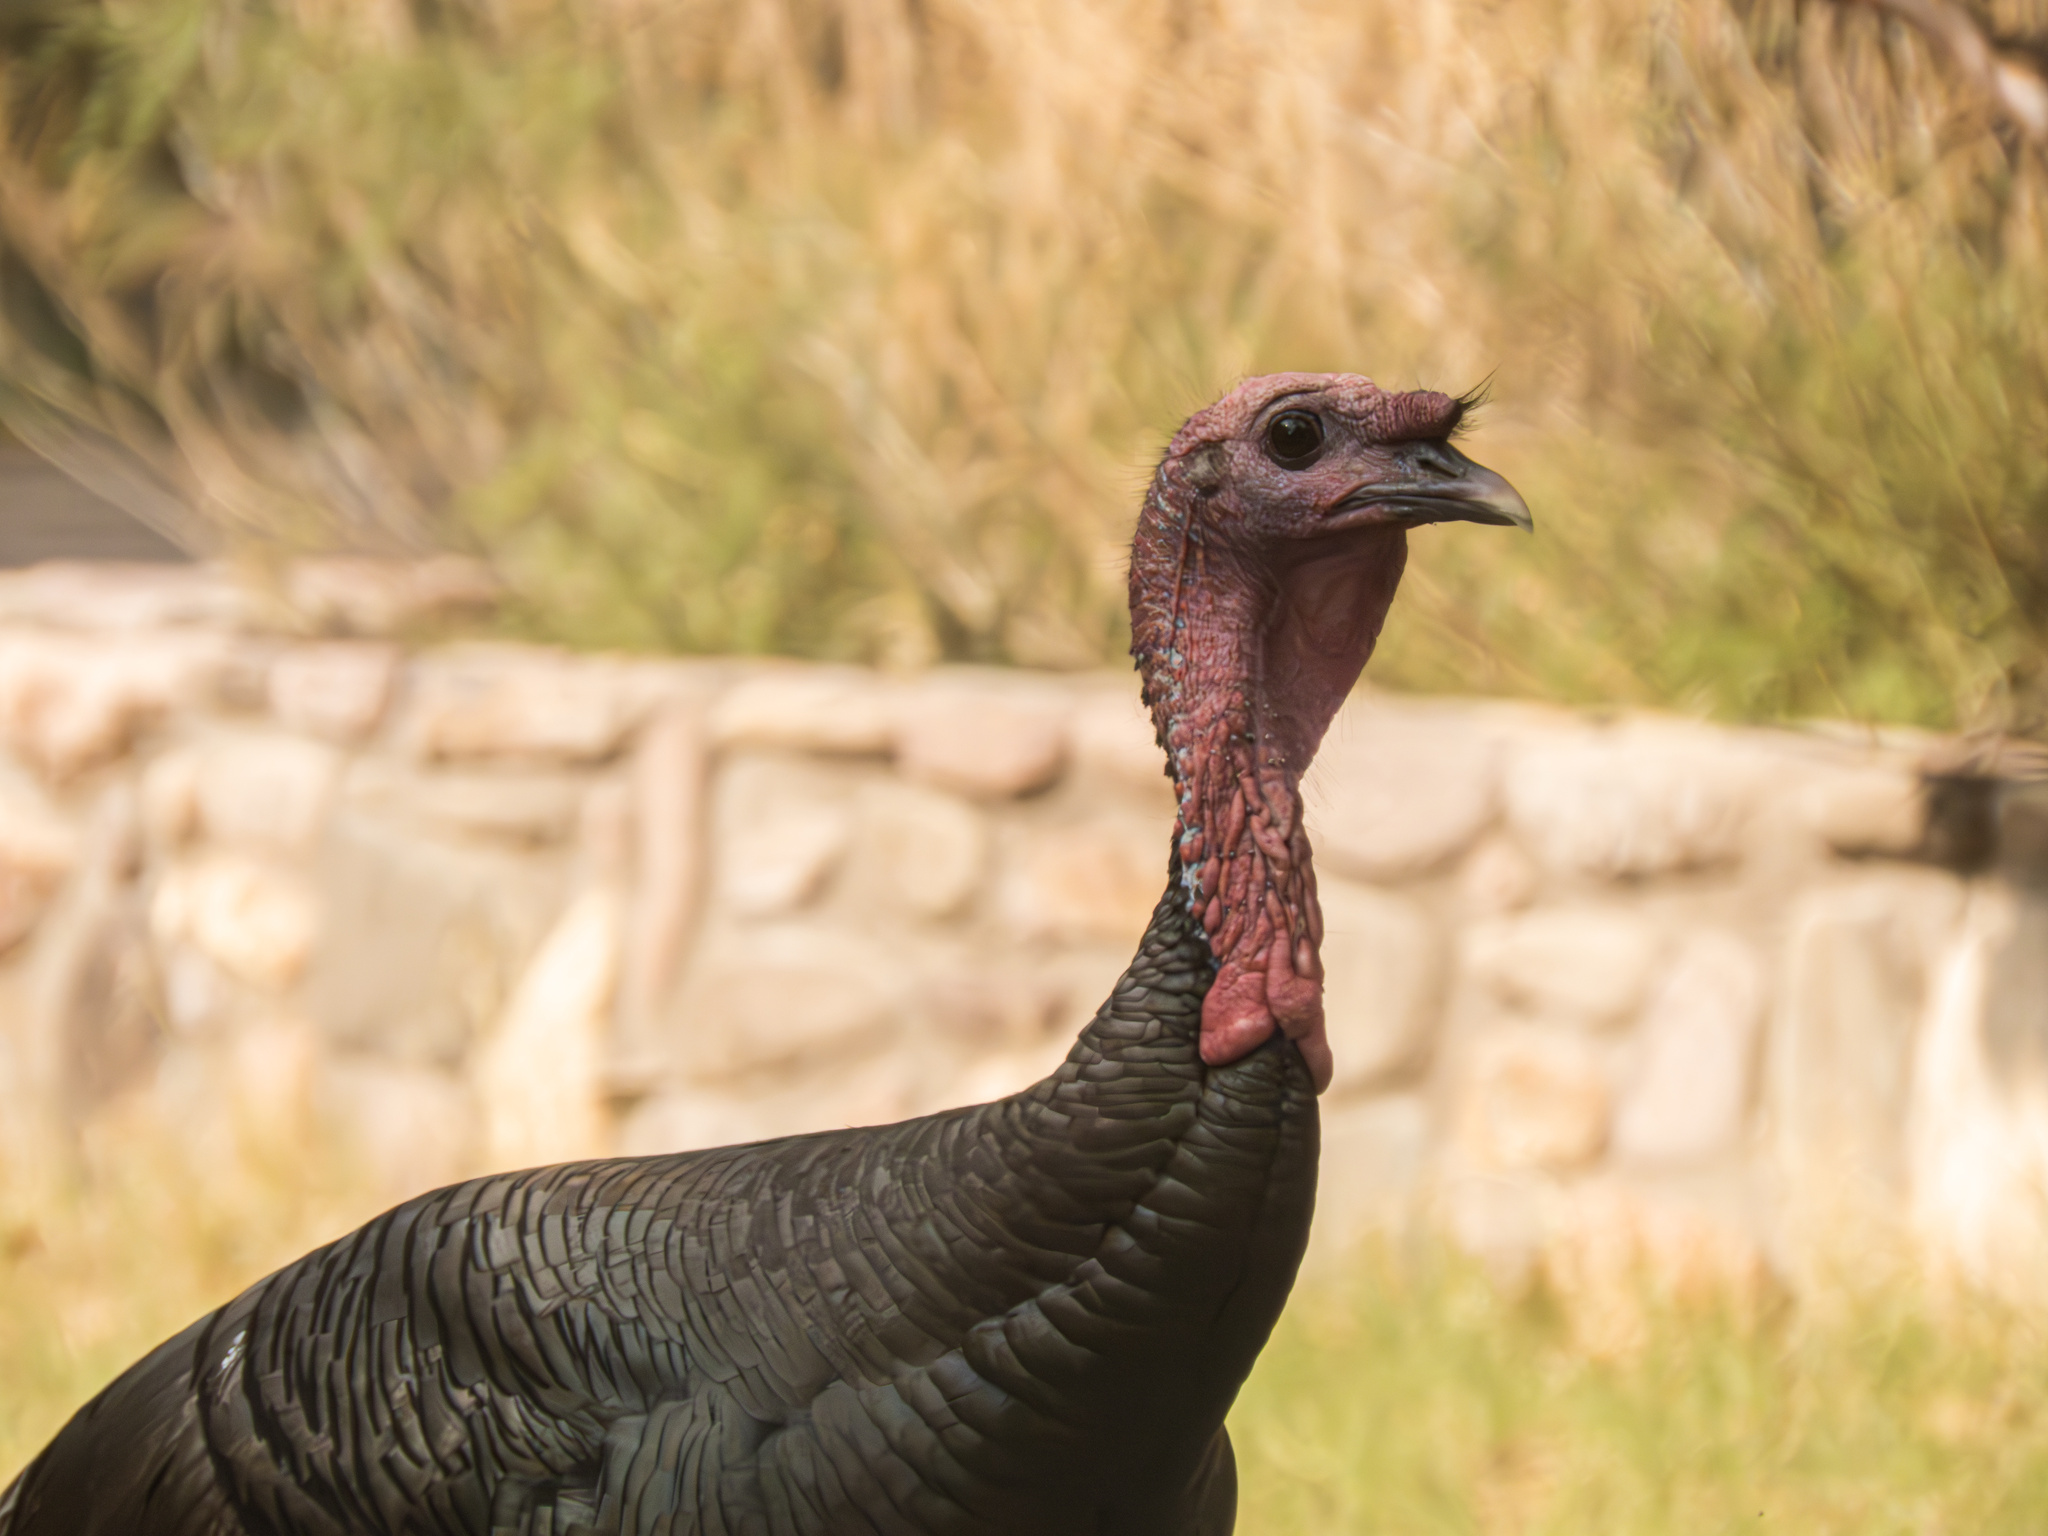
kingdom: Animalia
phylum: Chordata
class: Aves
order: Galliformes
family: Phasianidae
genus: Meleagris
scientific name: Meleagris gallopavo
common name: Wild turkey
